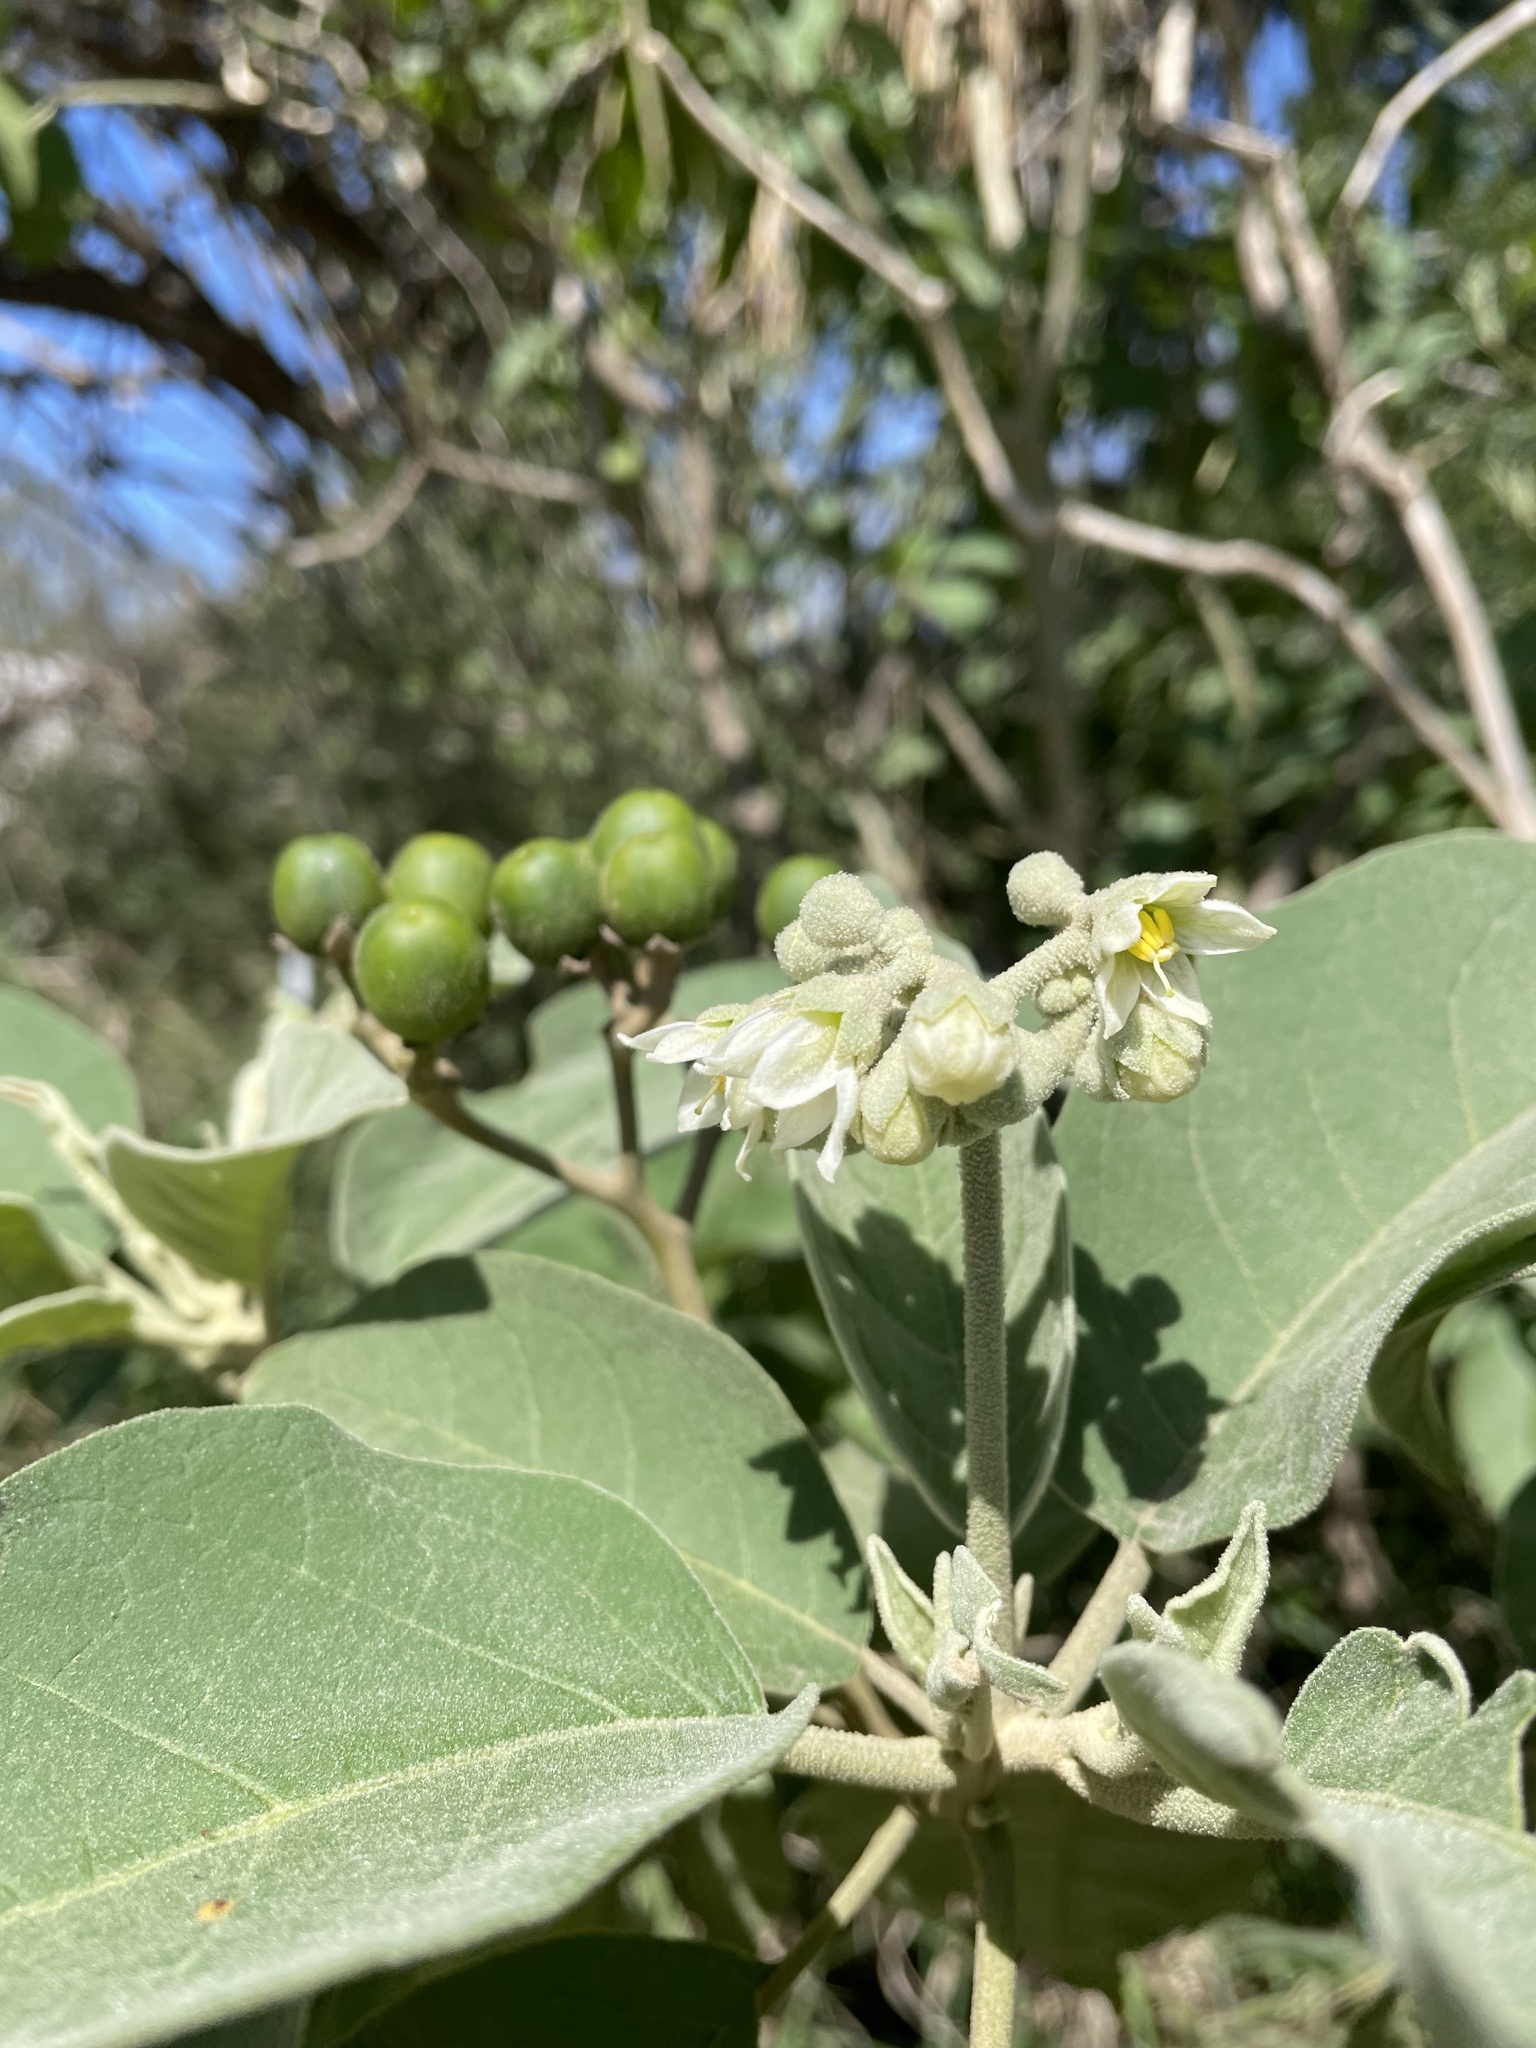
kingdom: Plantae
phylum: Tracheophyta
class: Magnoliopsida
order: Solanales
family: Solanaceae
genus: Solanum
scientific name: Solanum erianthum
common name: Tobacco-tree
